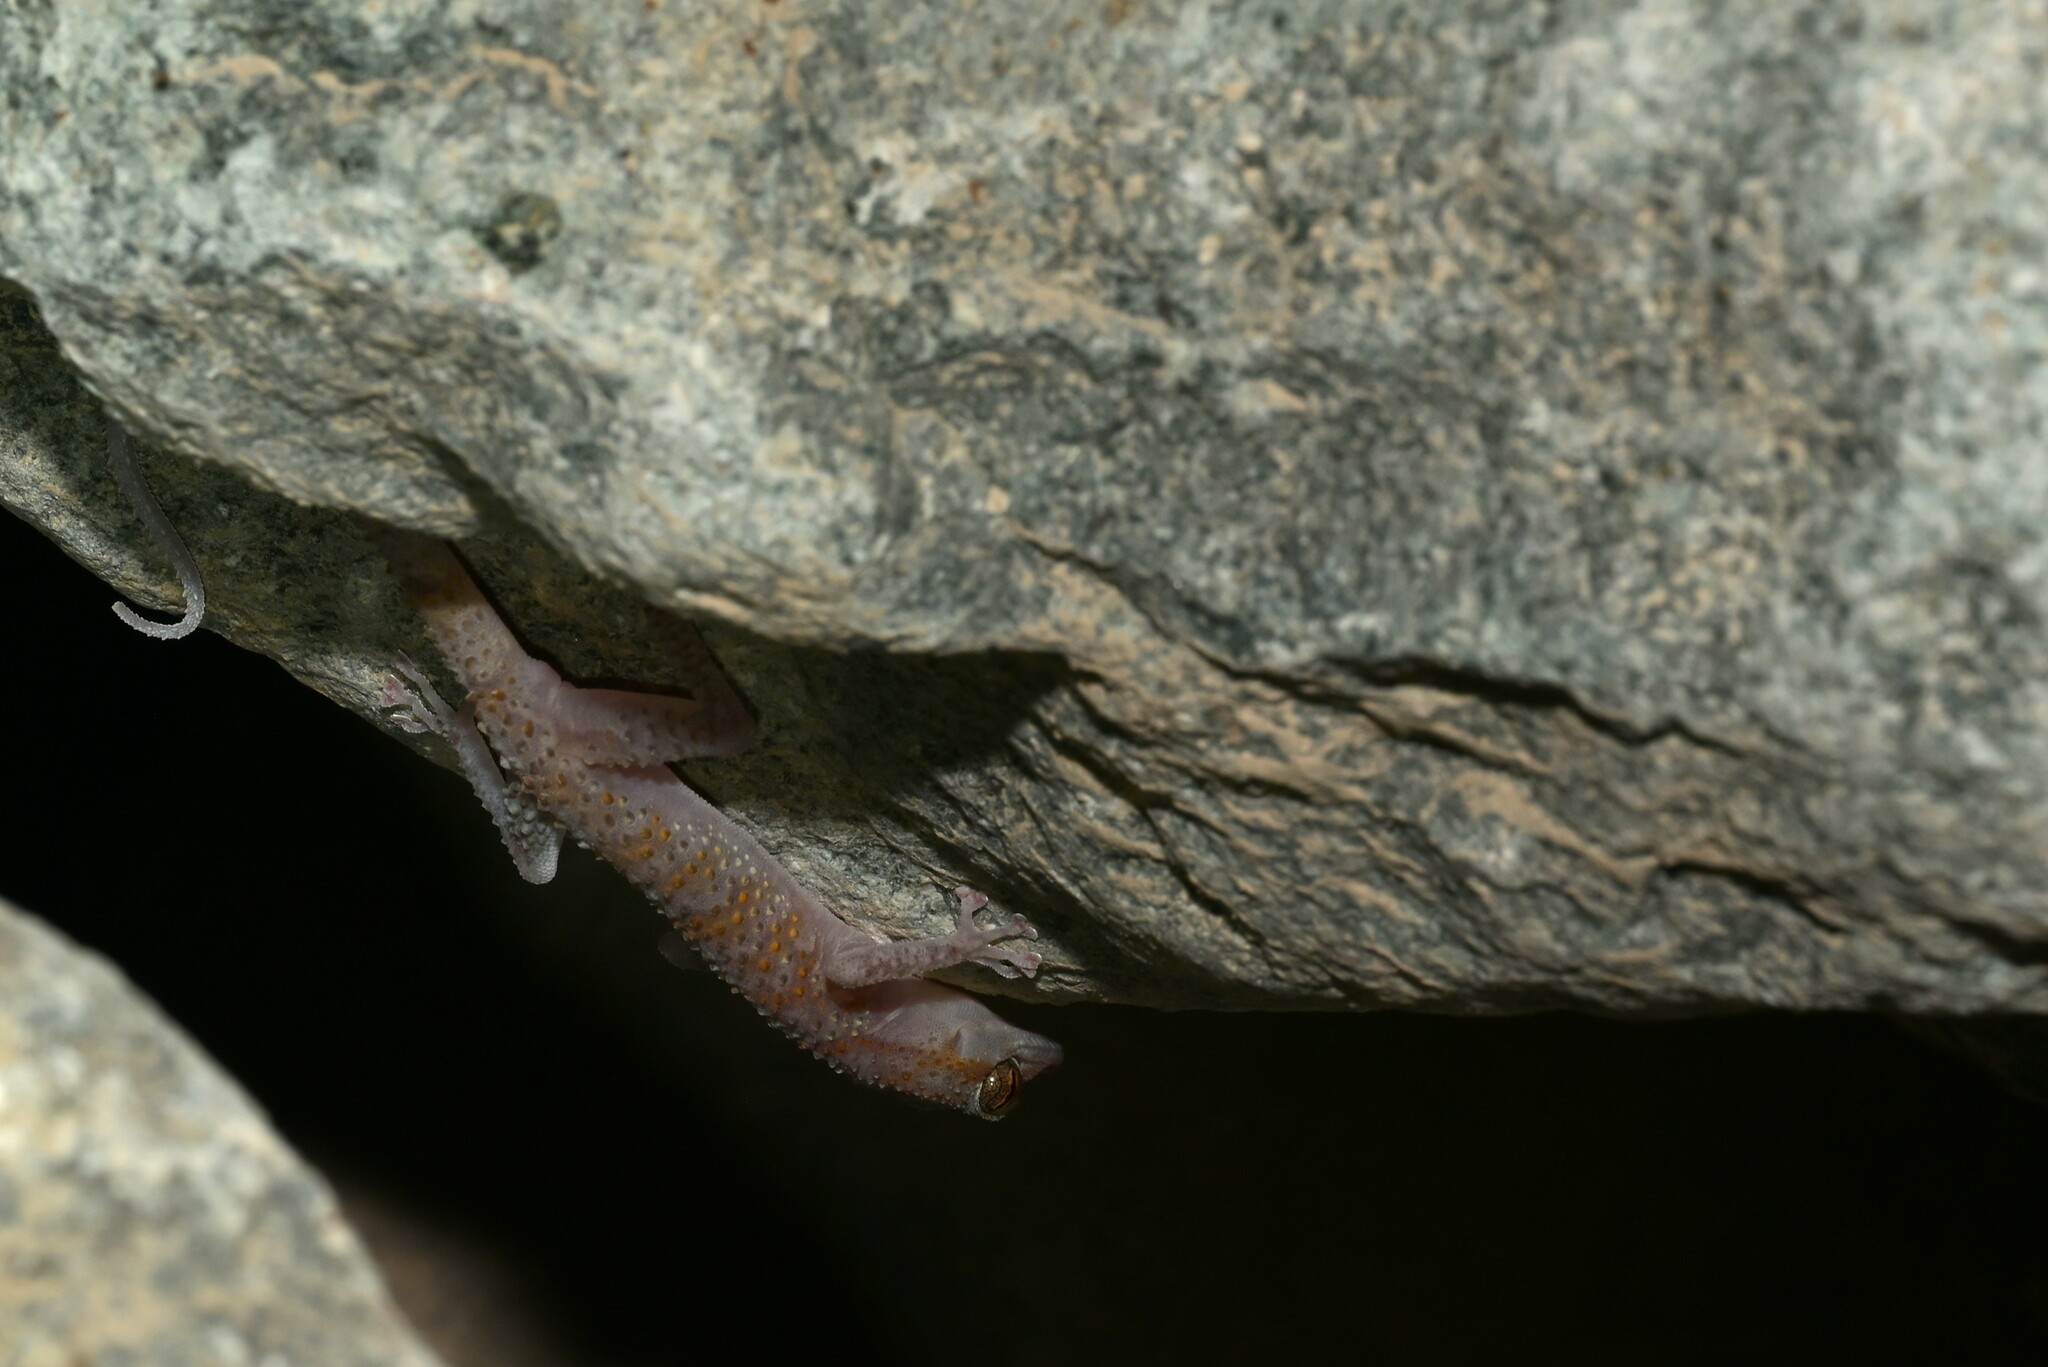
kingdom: Animalia
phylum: Chordata
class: Squamata
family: Phyllodactylidae
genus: Asaccus
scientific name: Asaccus margaritae
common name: Margarita’s leaf-toed gecko
